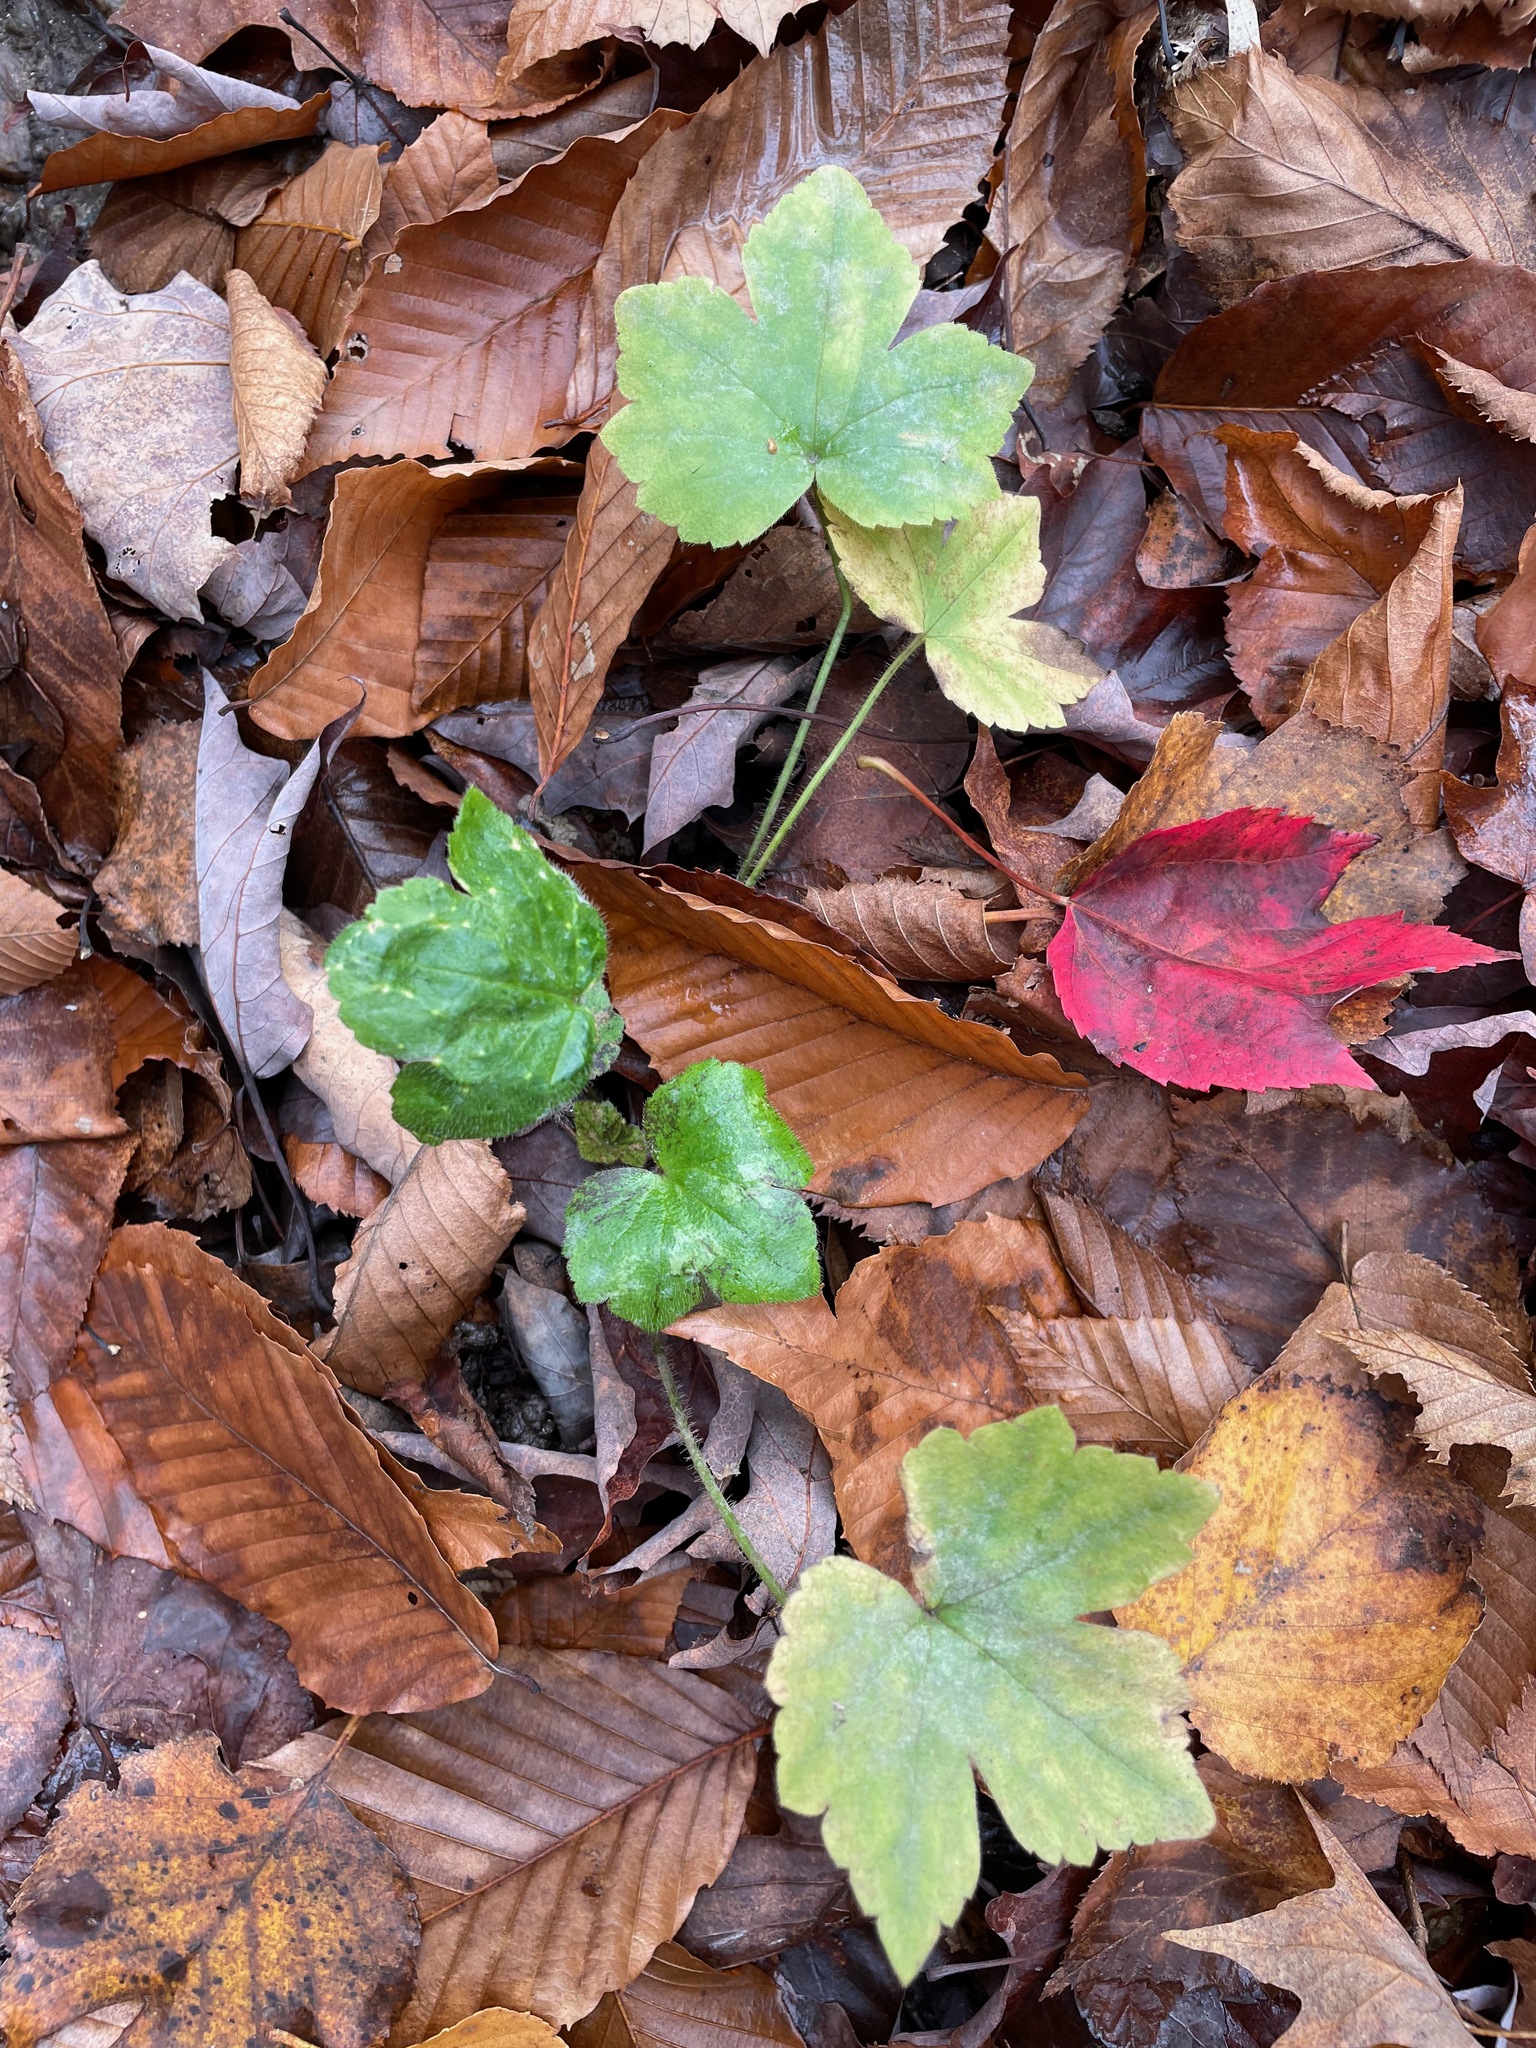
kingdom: Plantae
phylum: Tracheophyta
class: Magnoliopsida
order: Ranunculales
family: Ranunculaceae
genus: Ranunculus
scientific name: Ranunculus recurvatus
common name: Blisterwort
